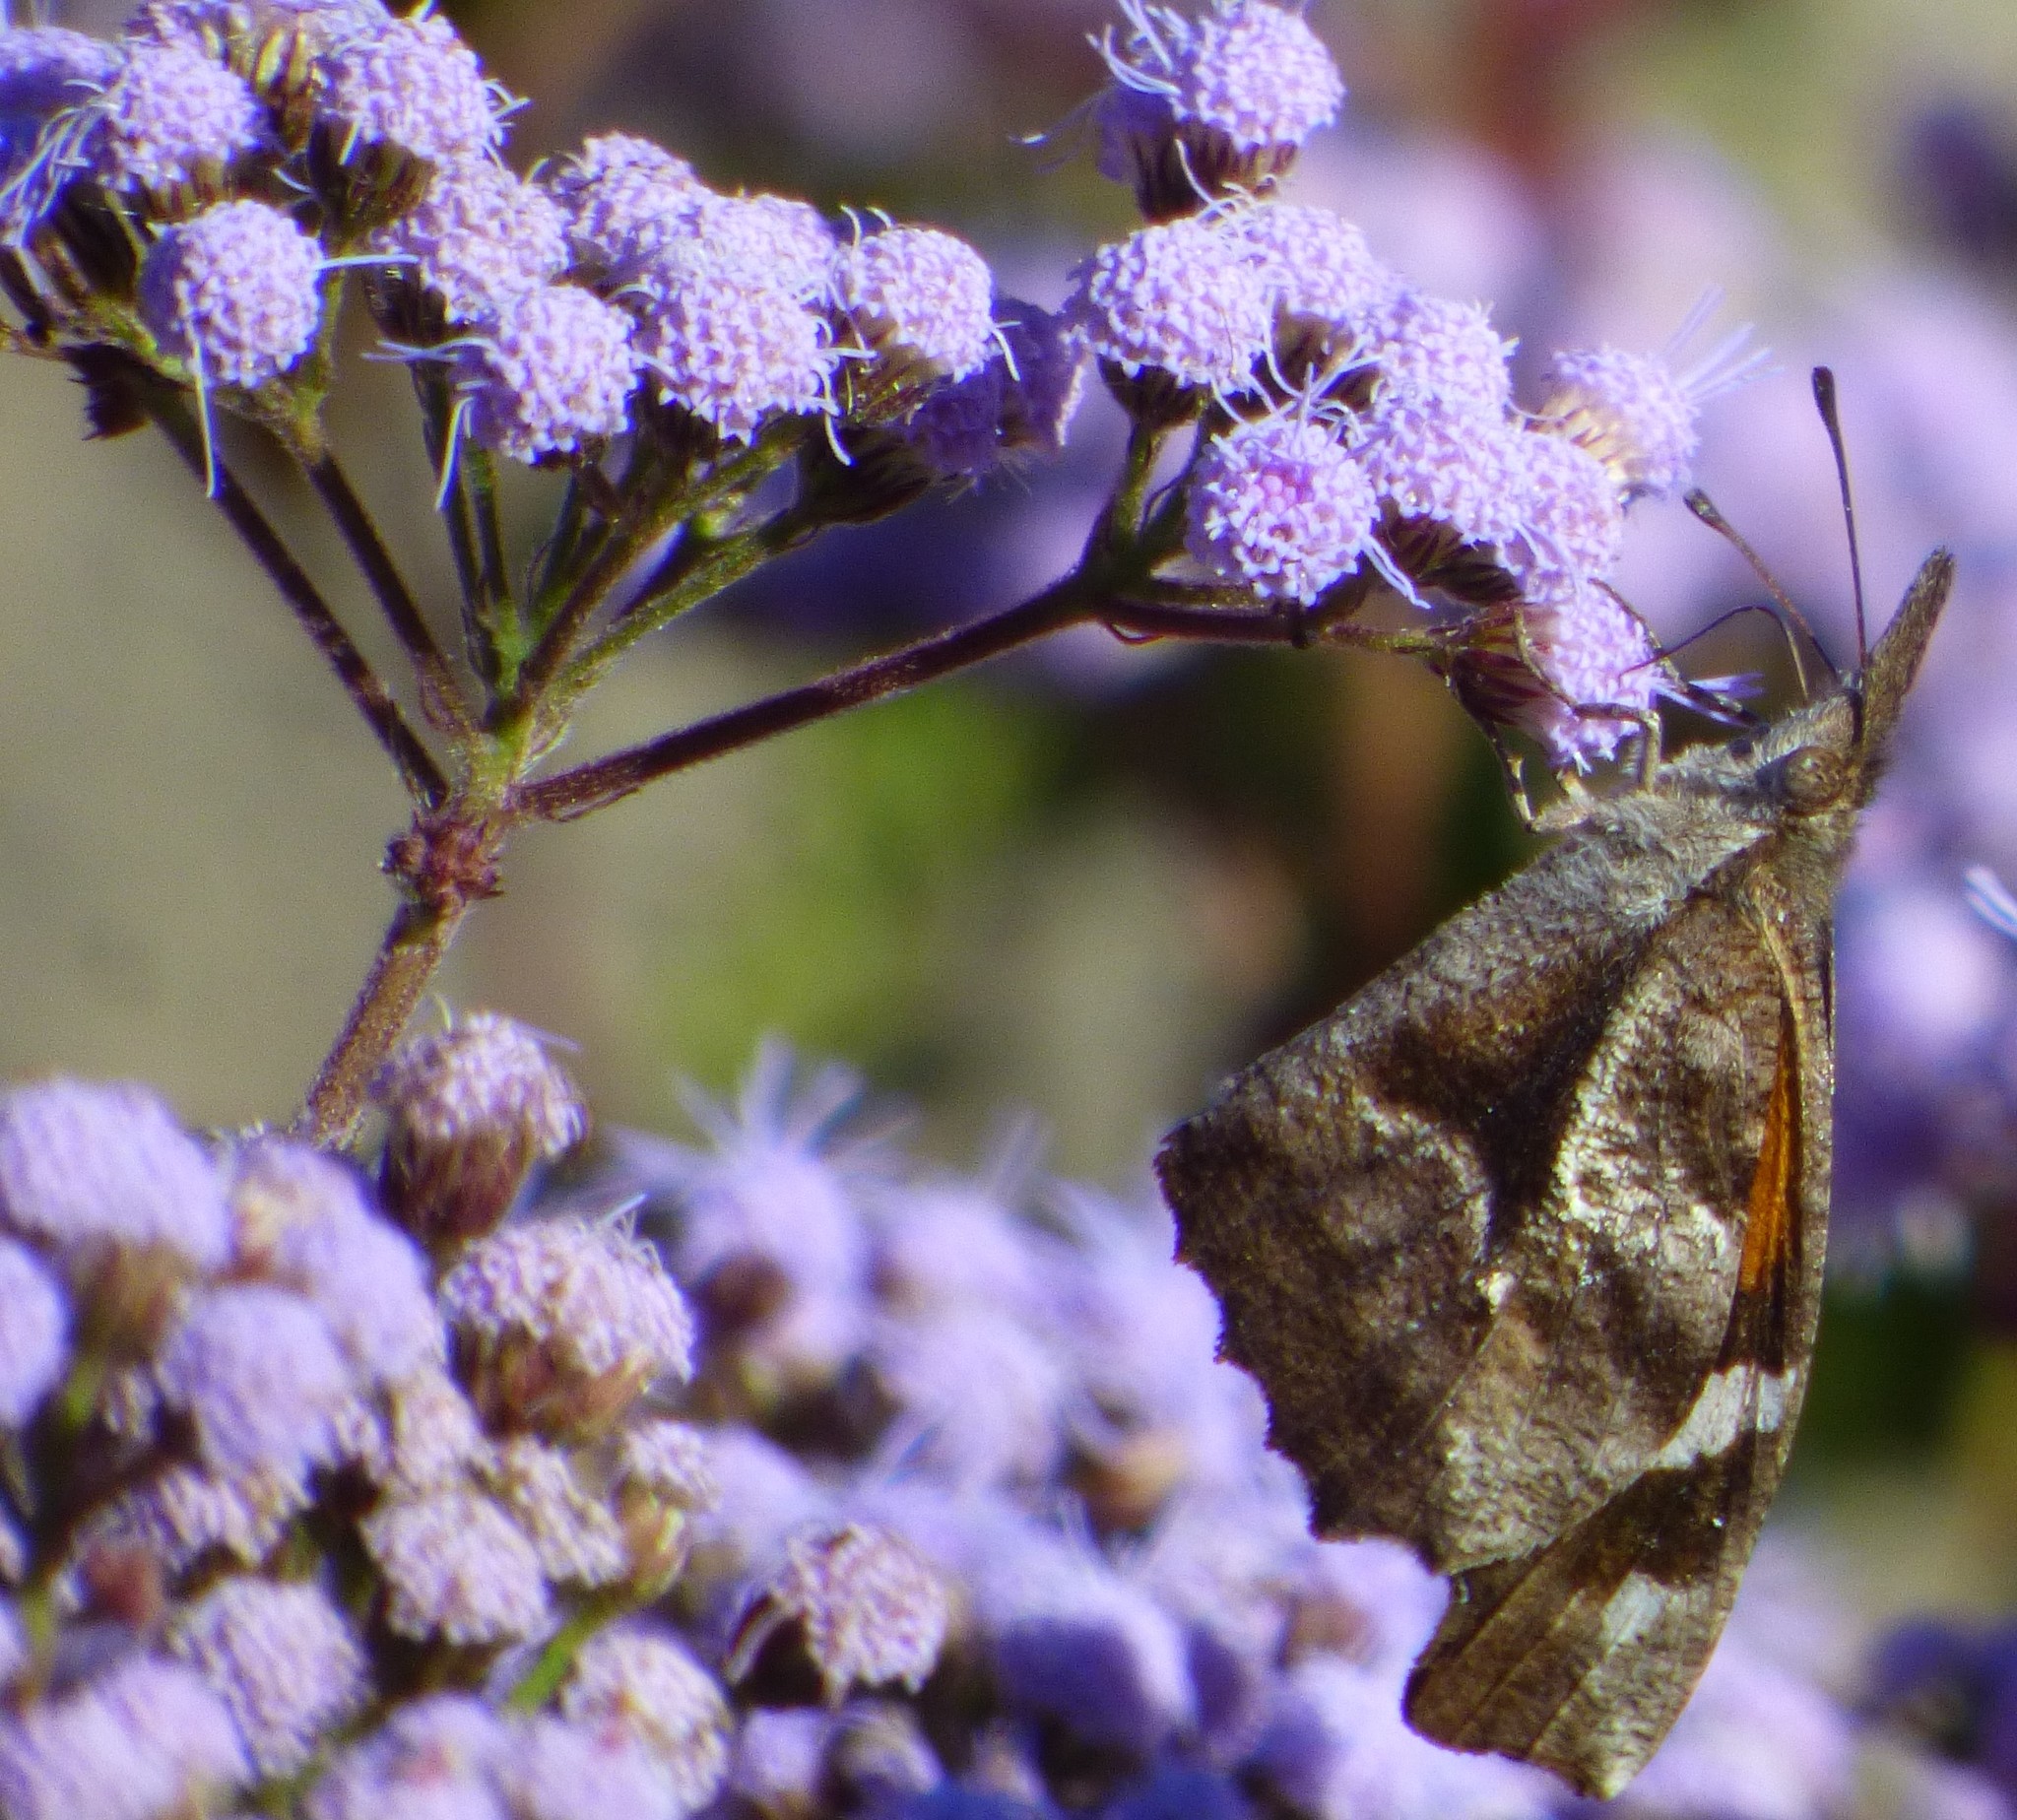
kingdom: Animalia
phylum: Arthropoda
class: Insecta
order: Lepidoptera
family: Nymphalidae
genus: Libytheana
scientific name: Libytheana carinenta
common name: American snout
